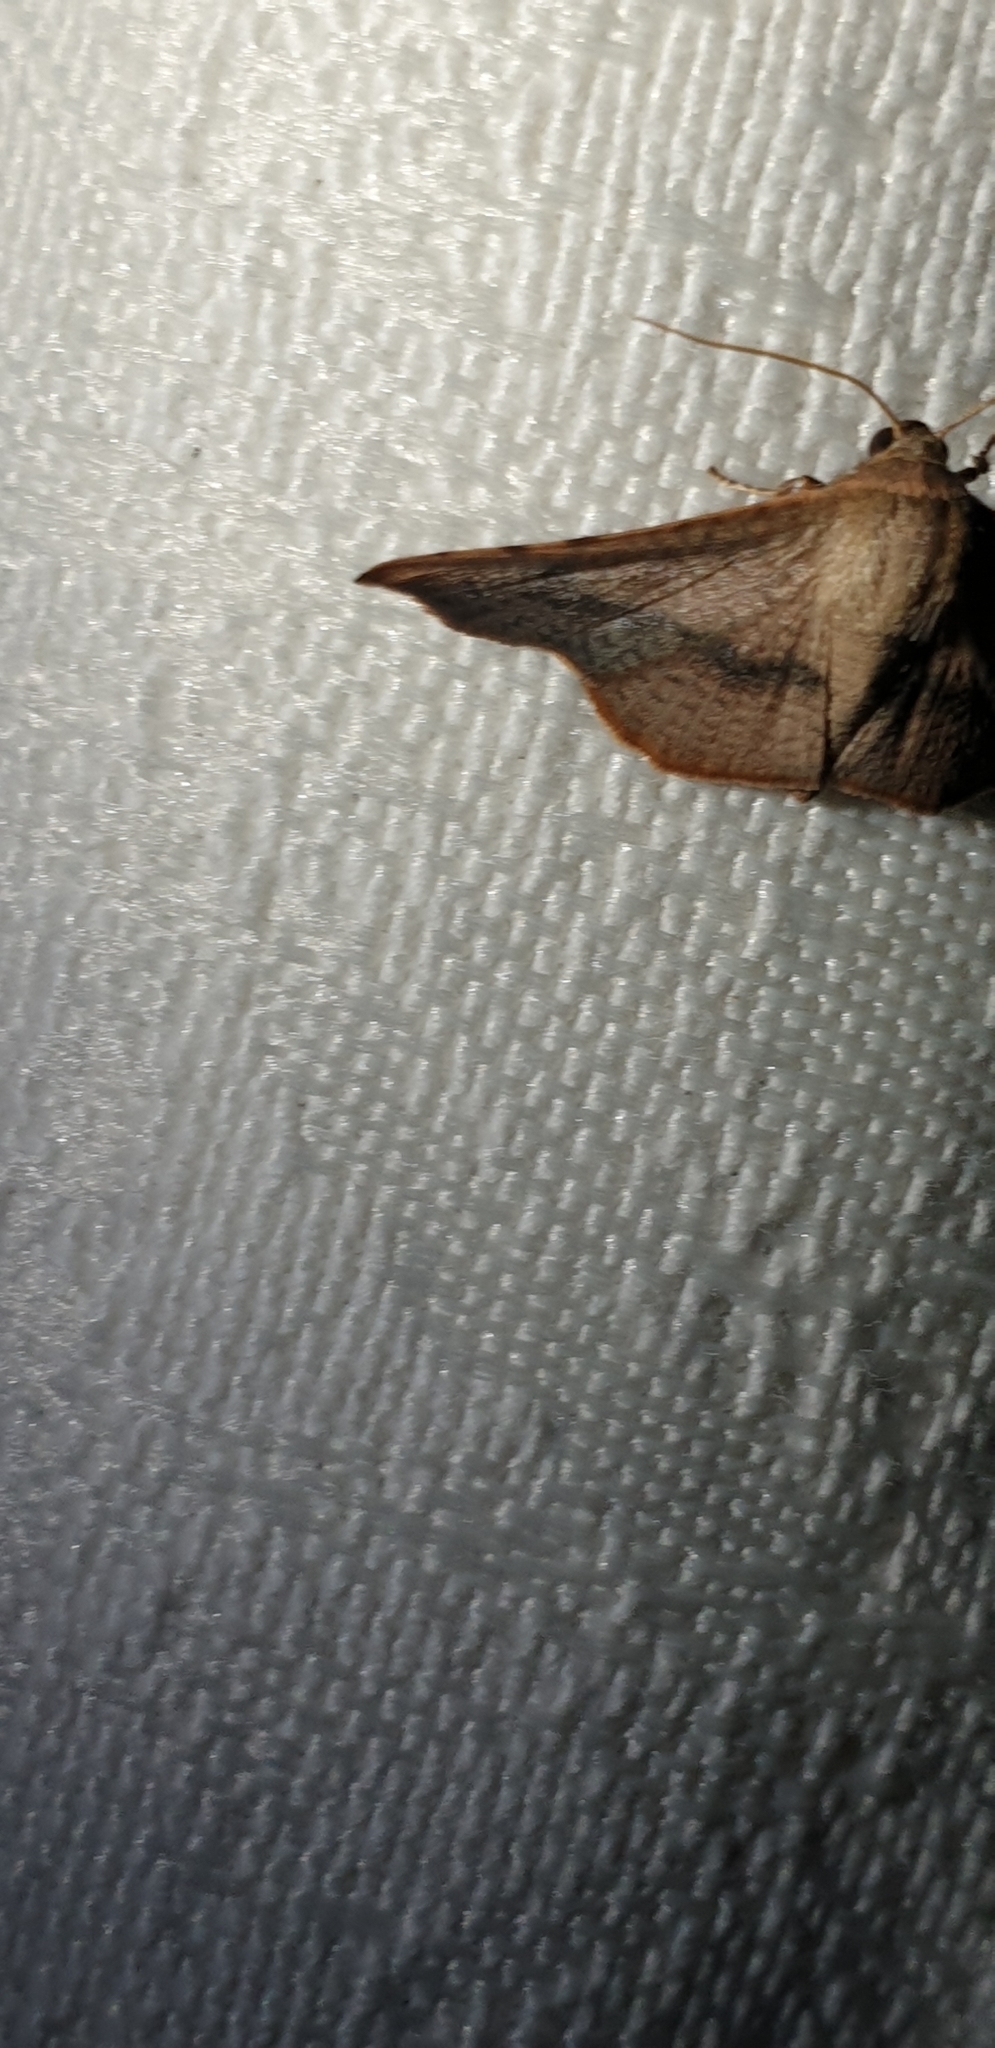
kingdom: Animalia
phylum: Arthropoda
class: Insecta
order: Lepidoptera
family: Thyrididae
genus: Aglaopus
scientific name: Aglaopus centiginosa
